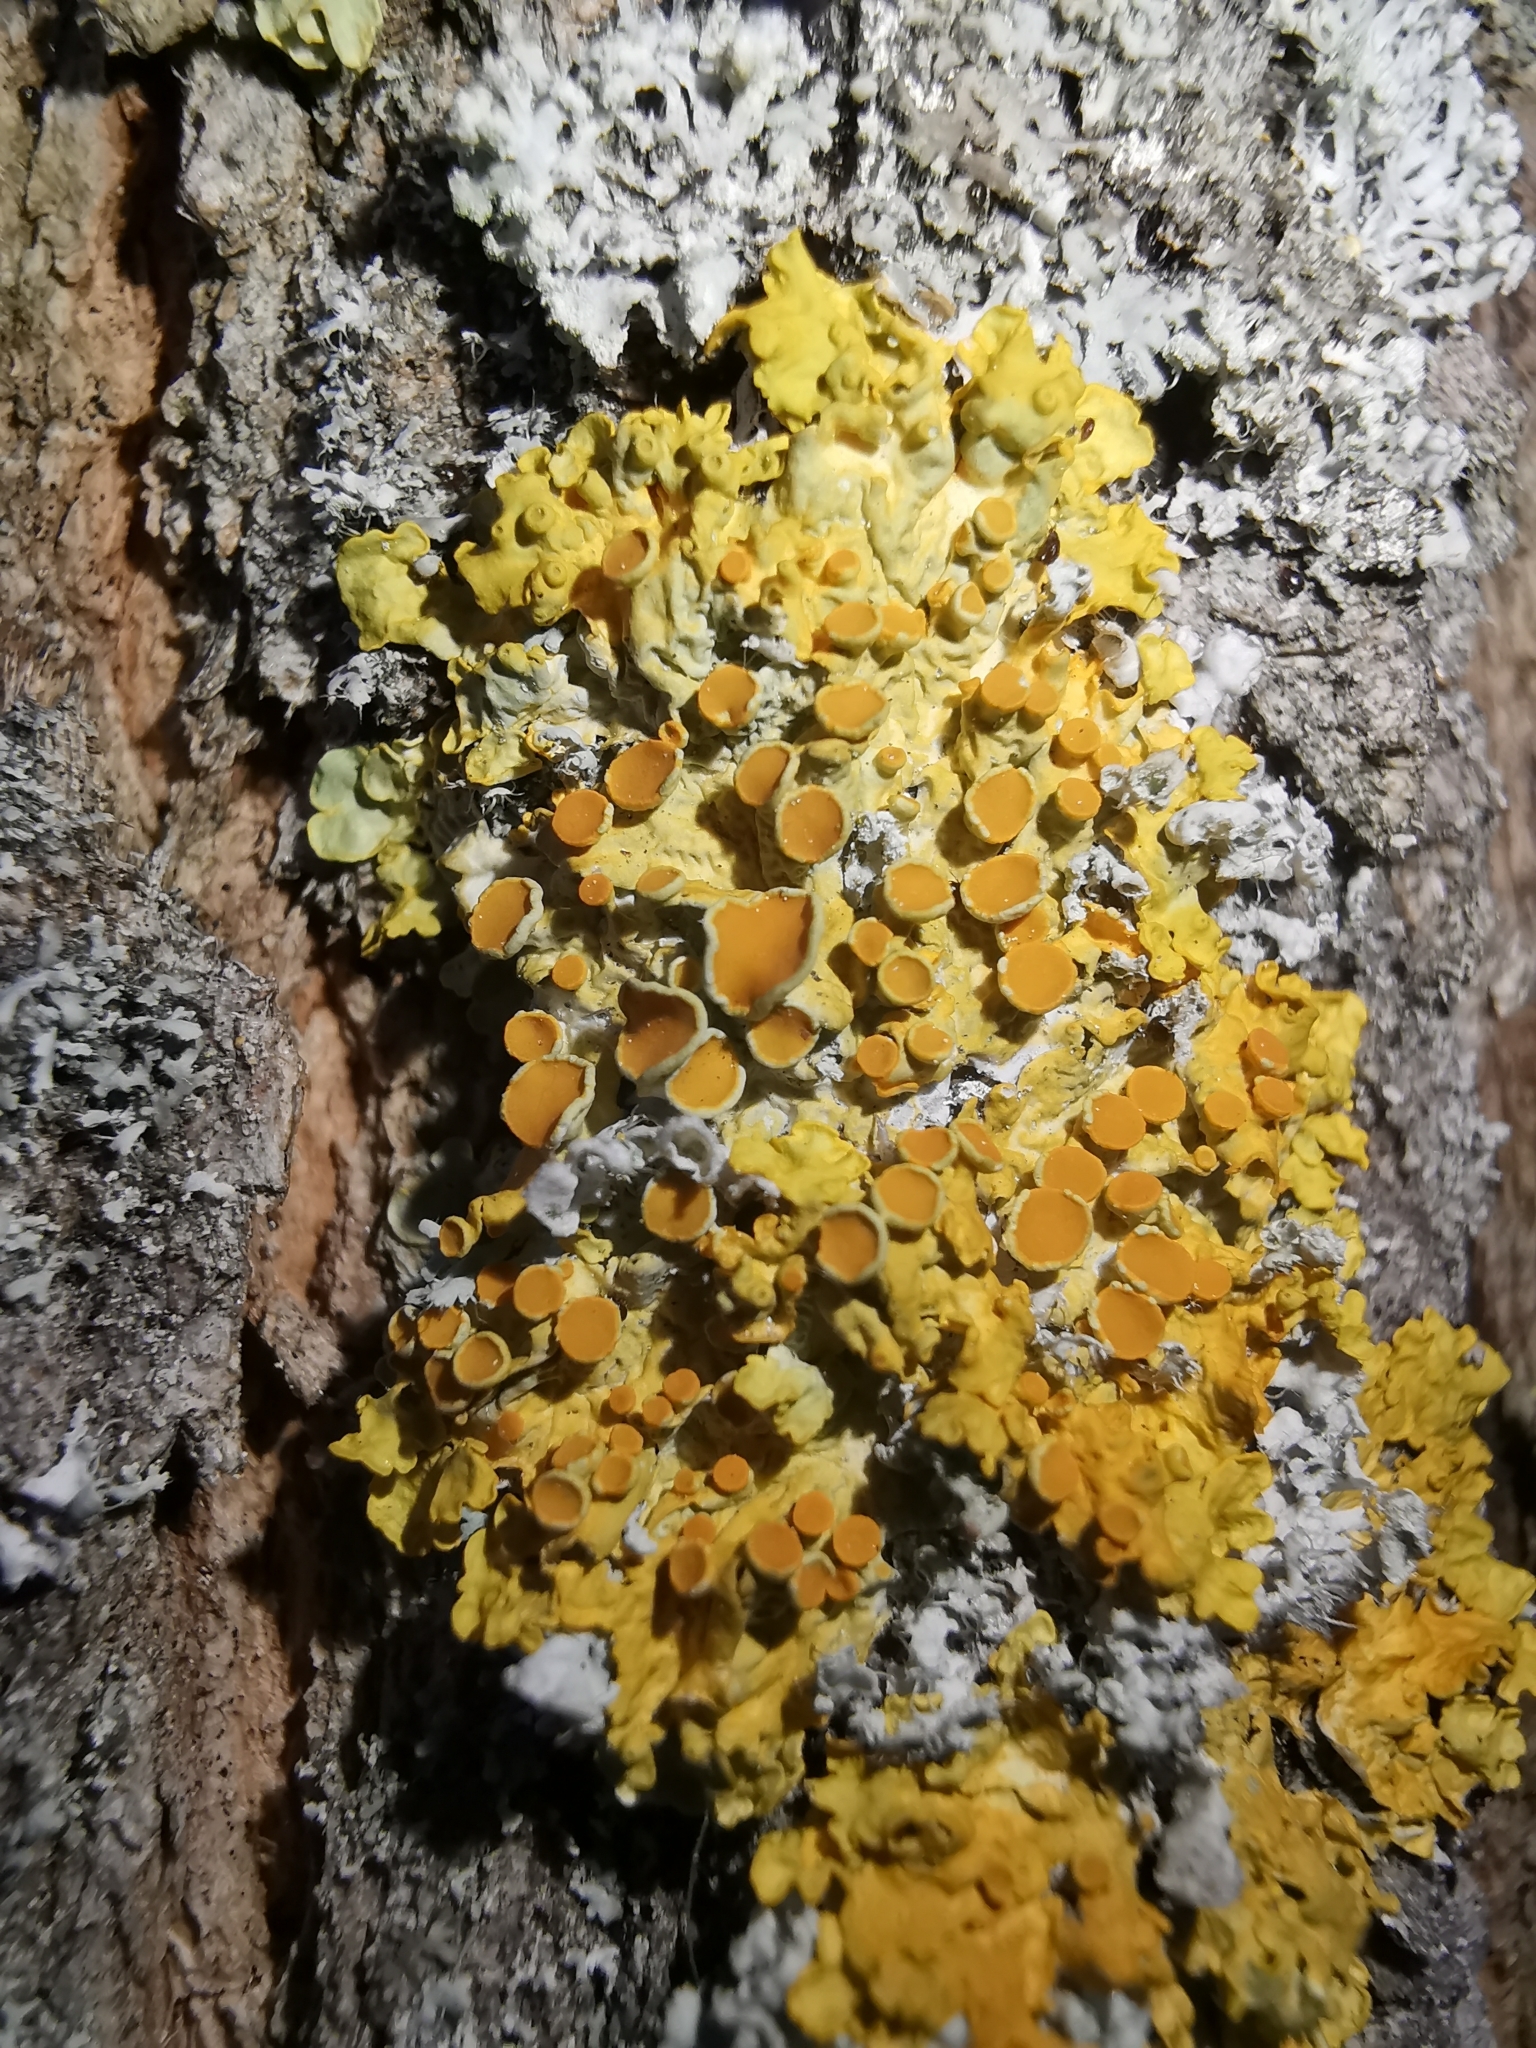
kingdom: Fungi
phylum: Ascomycota
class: Lecanoromycetes
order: Teloschistales
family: Teloschistaceae
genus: Xanthoria
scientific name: Xanthoria parietina
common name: Common orange lichen
